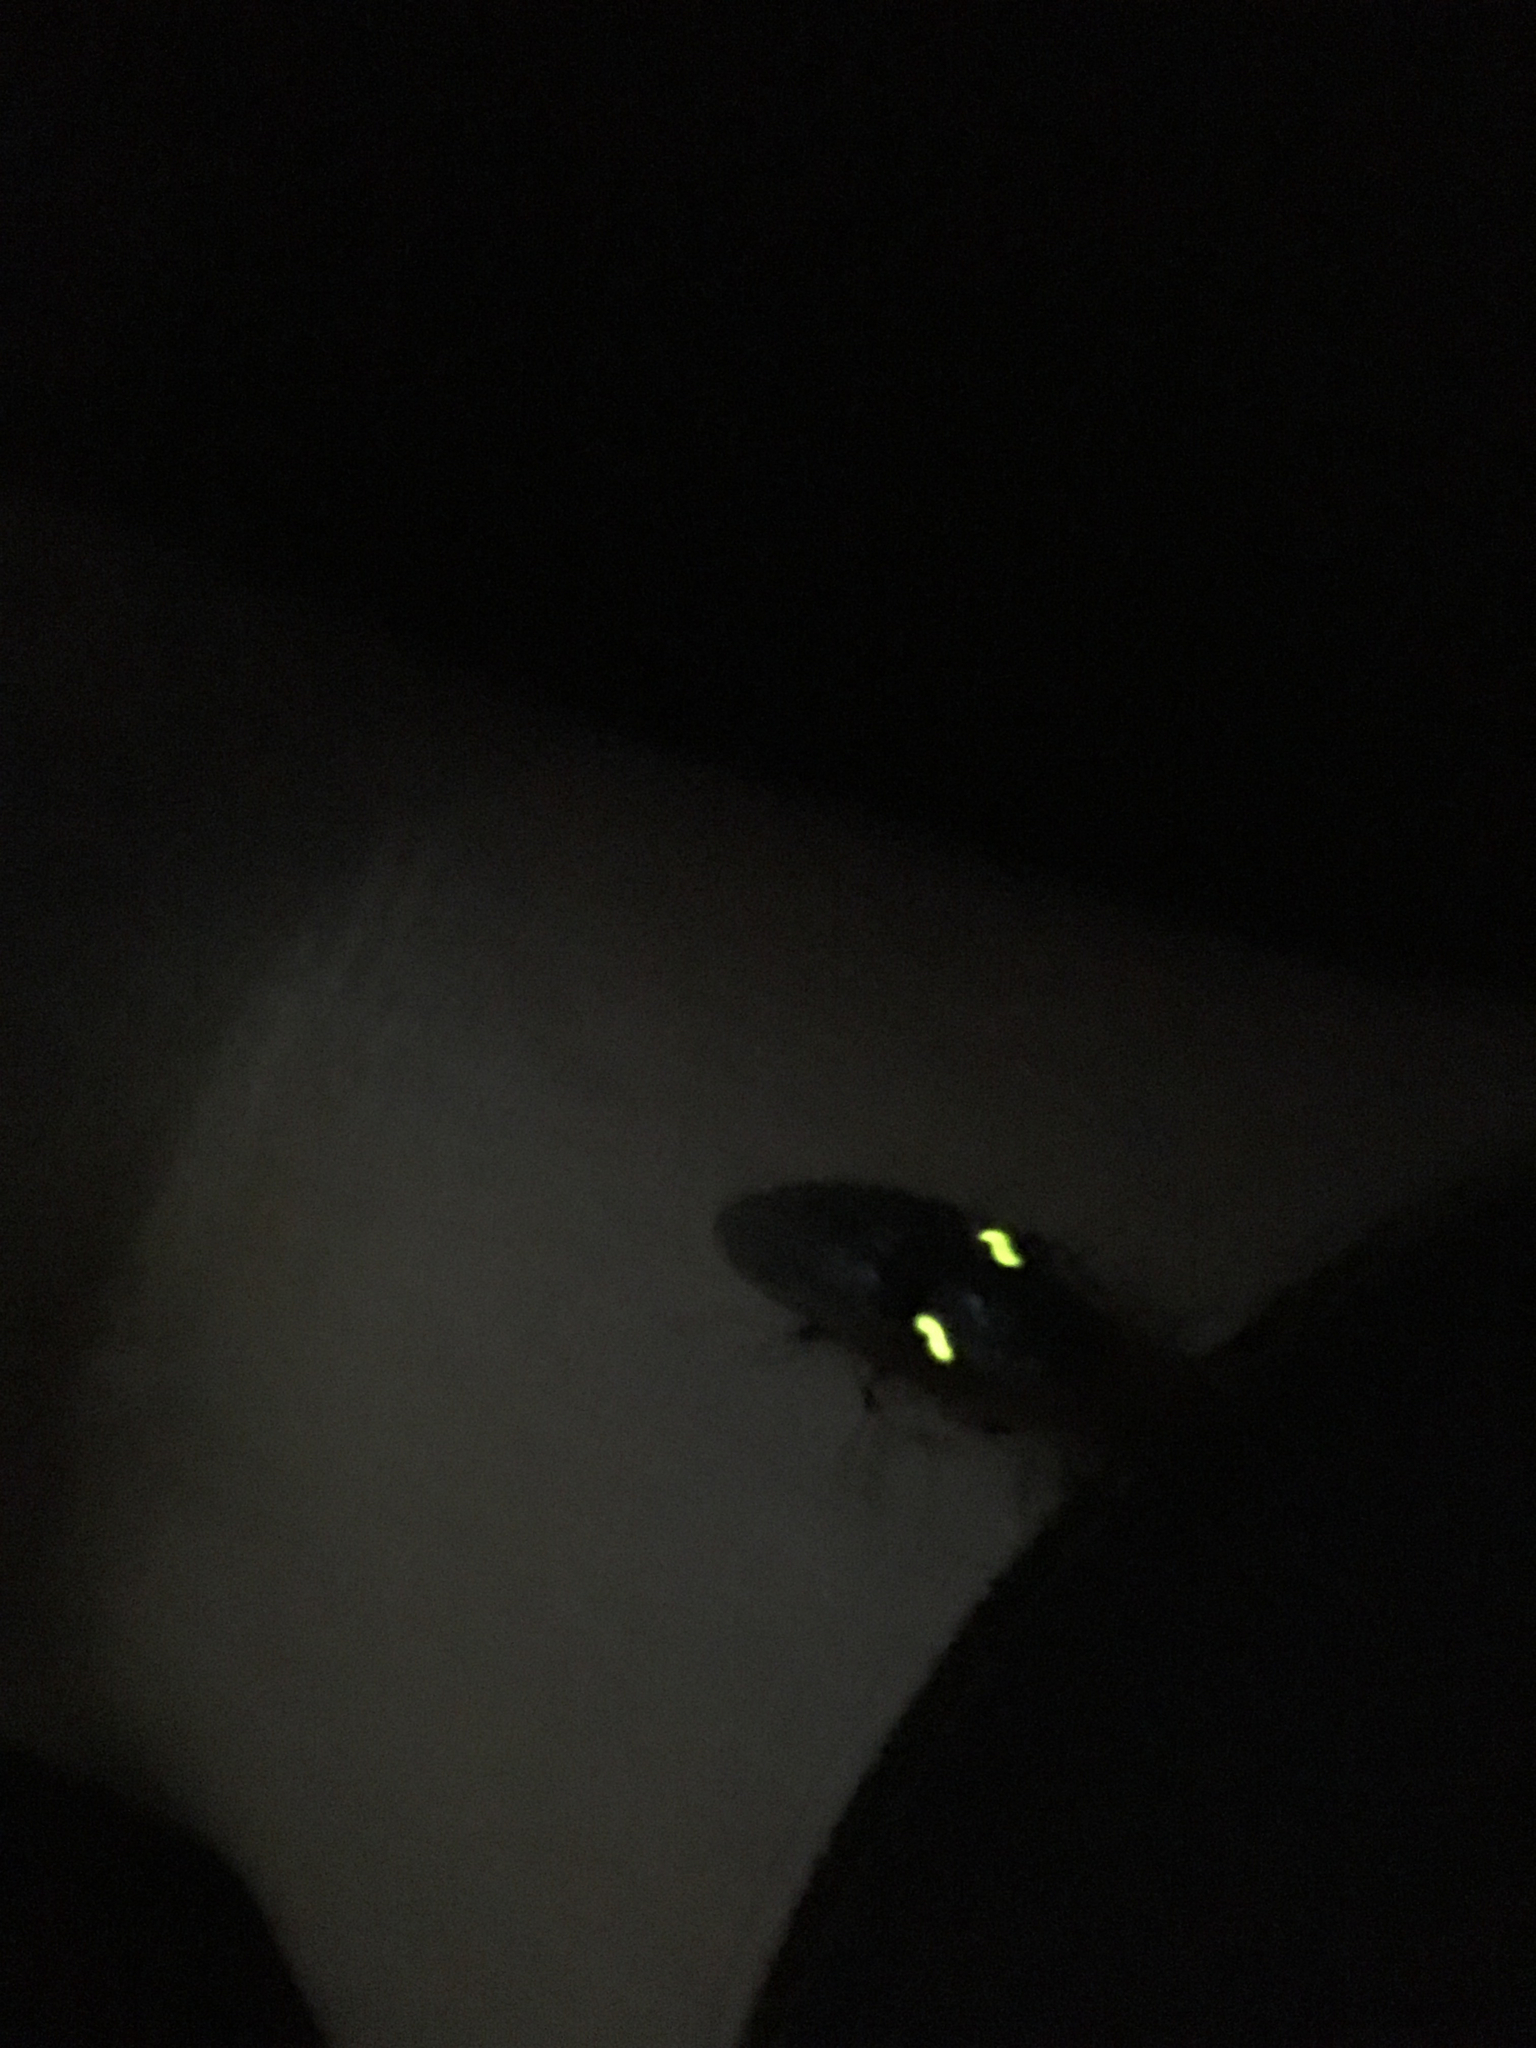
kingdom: Animalia
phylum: Arthropoda
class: Insecta
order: Coleoptera
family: Elateridae
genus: Deilelater
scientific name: Deilelater
